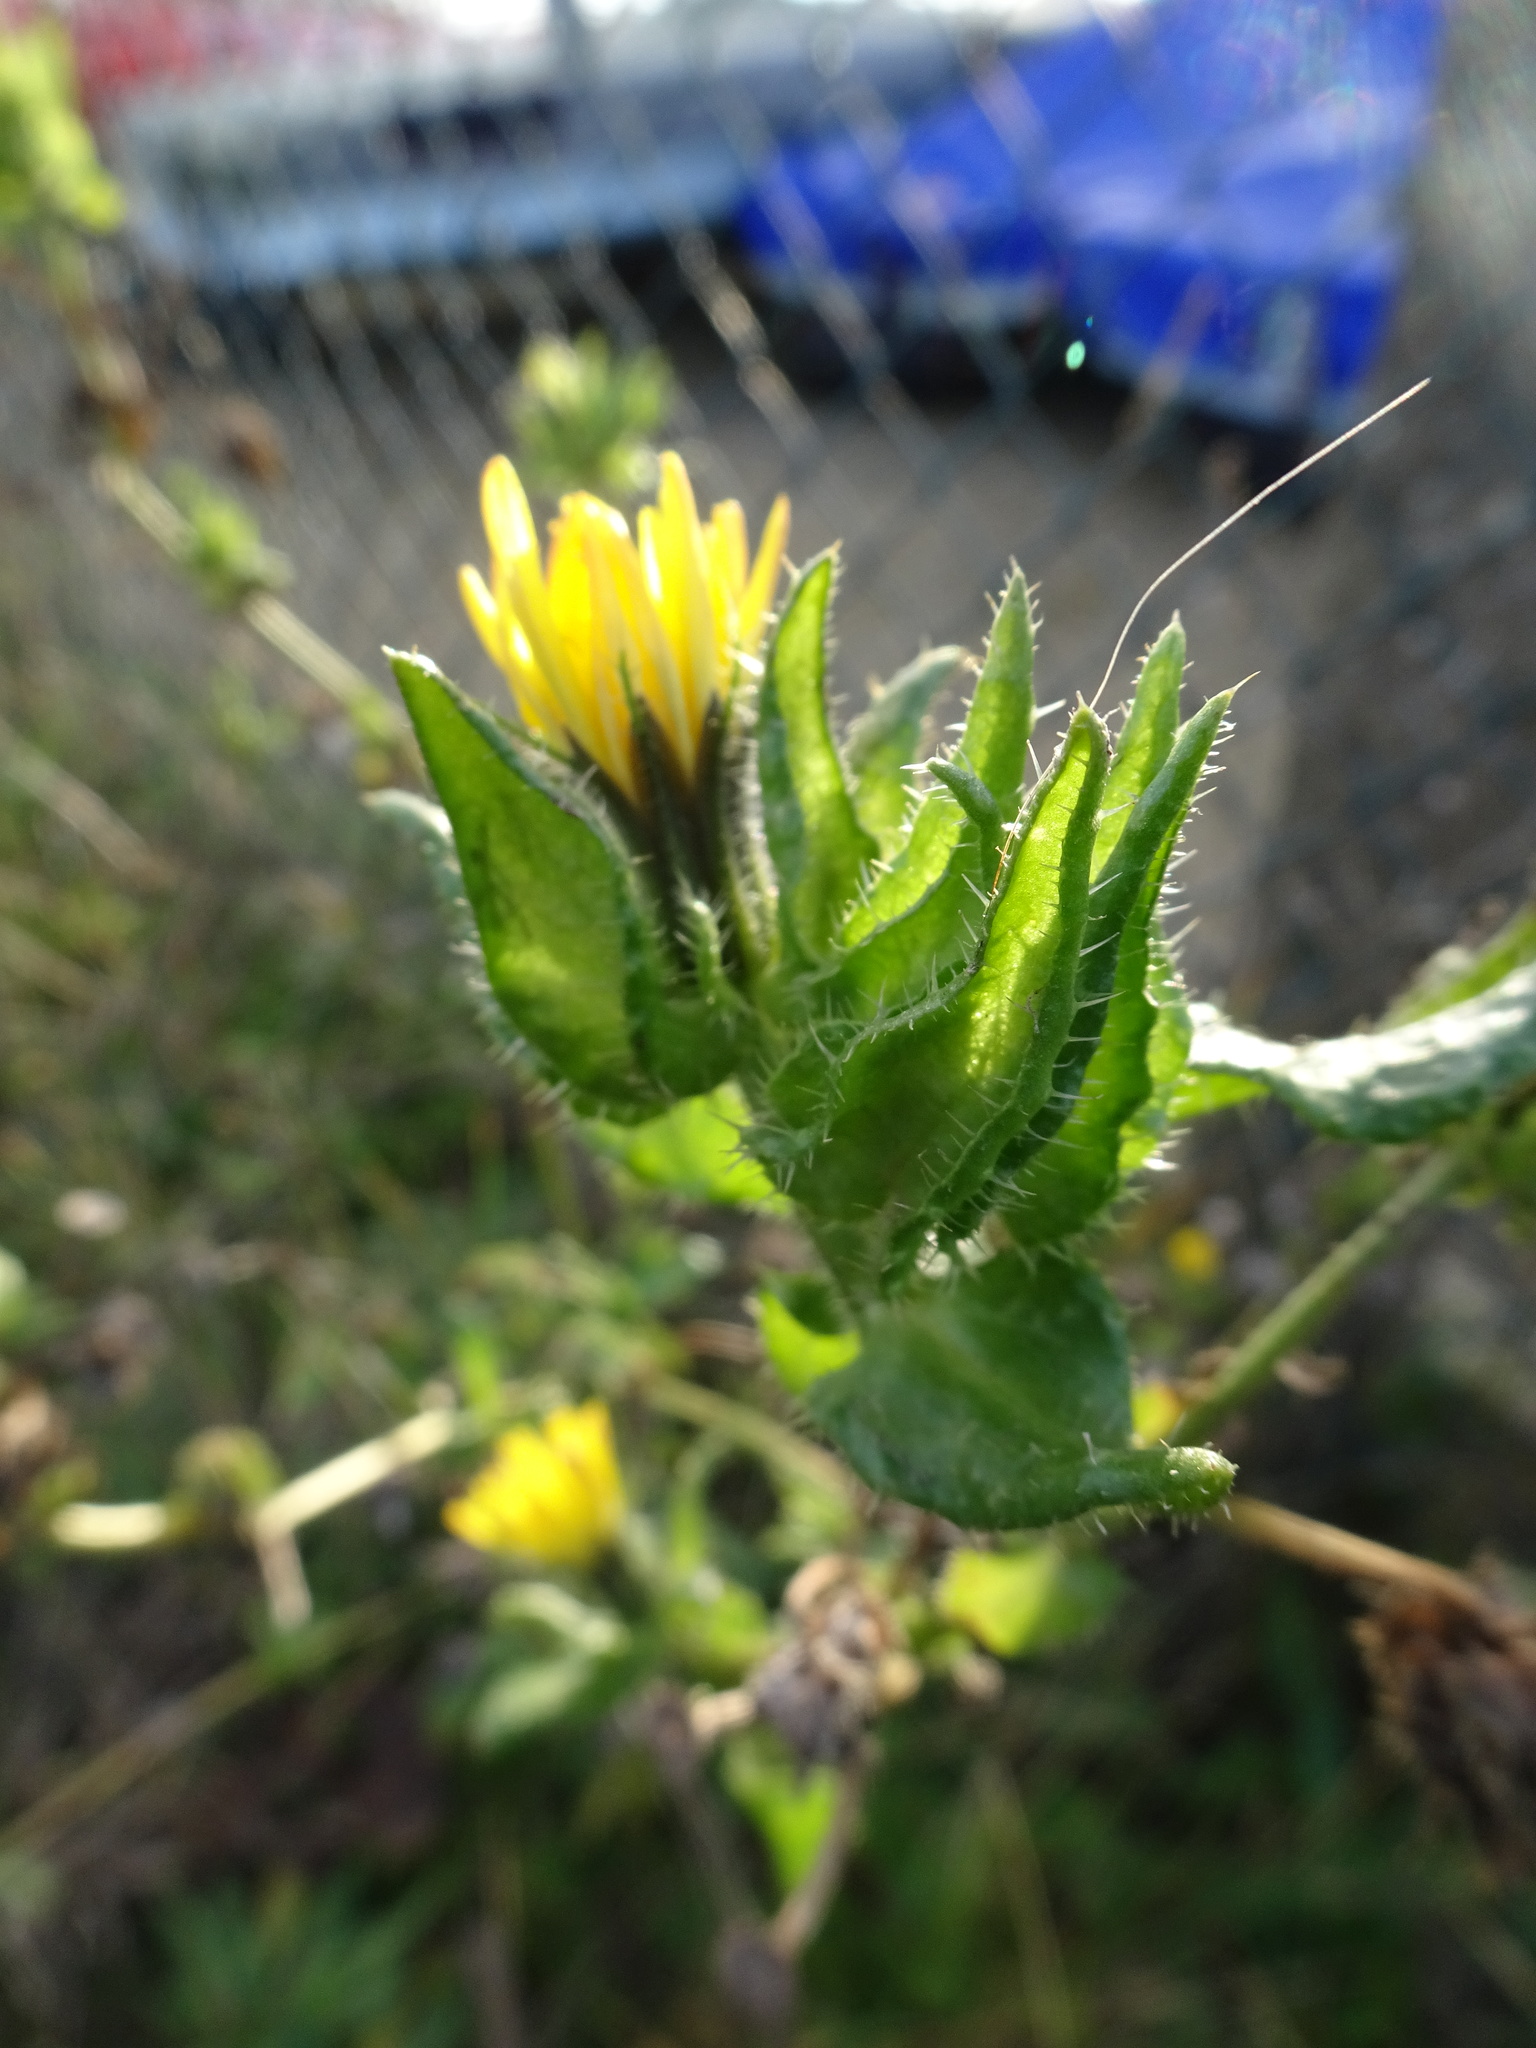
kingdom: Plantae
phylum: Tracheophyta
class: Magnoliopsida
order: Asterales
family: Asteraceae
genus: Helminthotheca
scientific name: Helminthotheca echioides
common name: Ox-tongue
